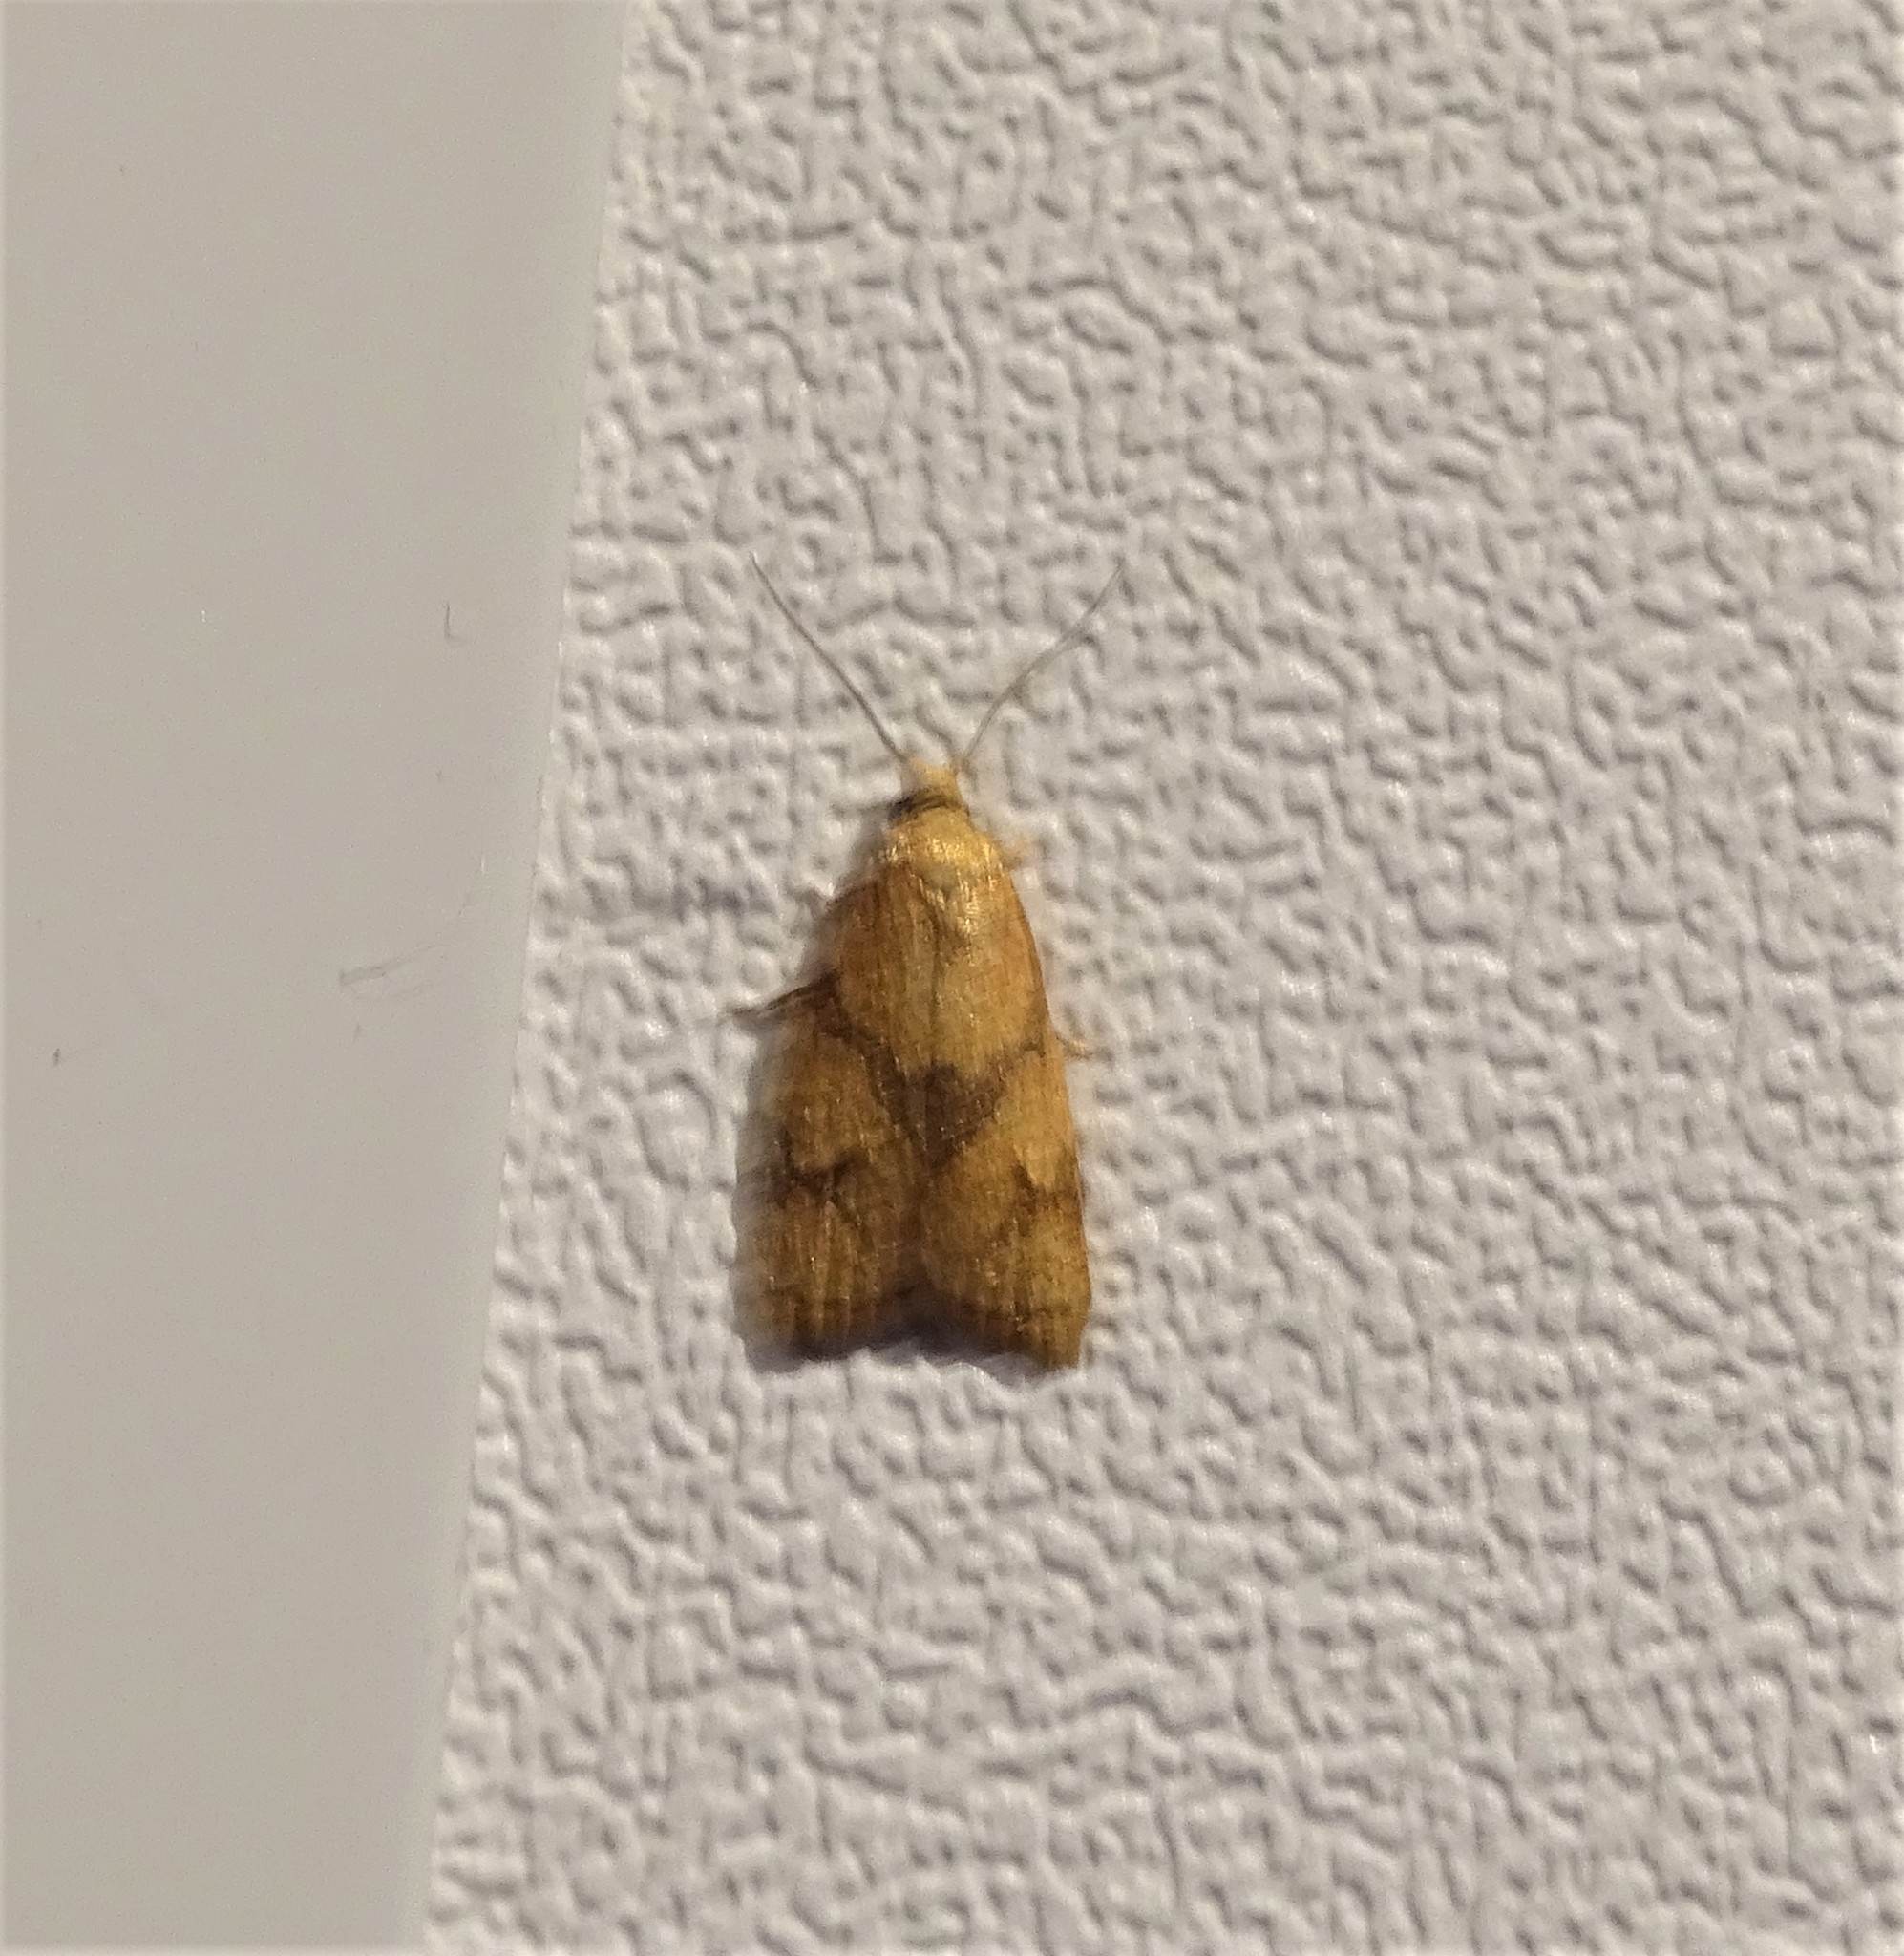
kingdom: Animalia
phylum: Arthropoda
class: Insecta
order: Lepidoptera
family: Tortricidae
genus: Cenopis
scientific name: Cenopis reticulatana
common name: Reticulated fruitworm moth
